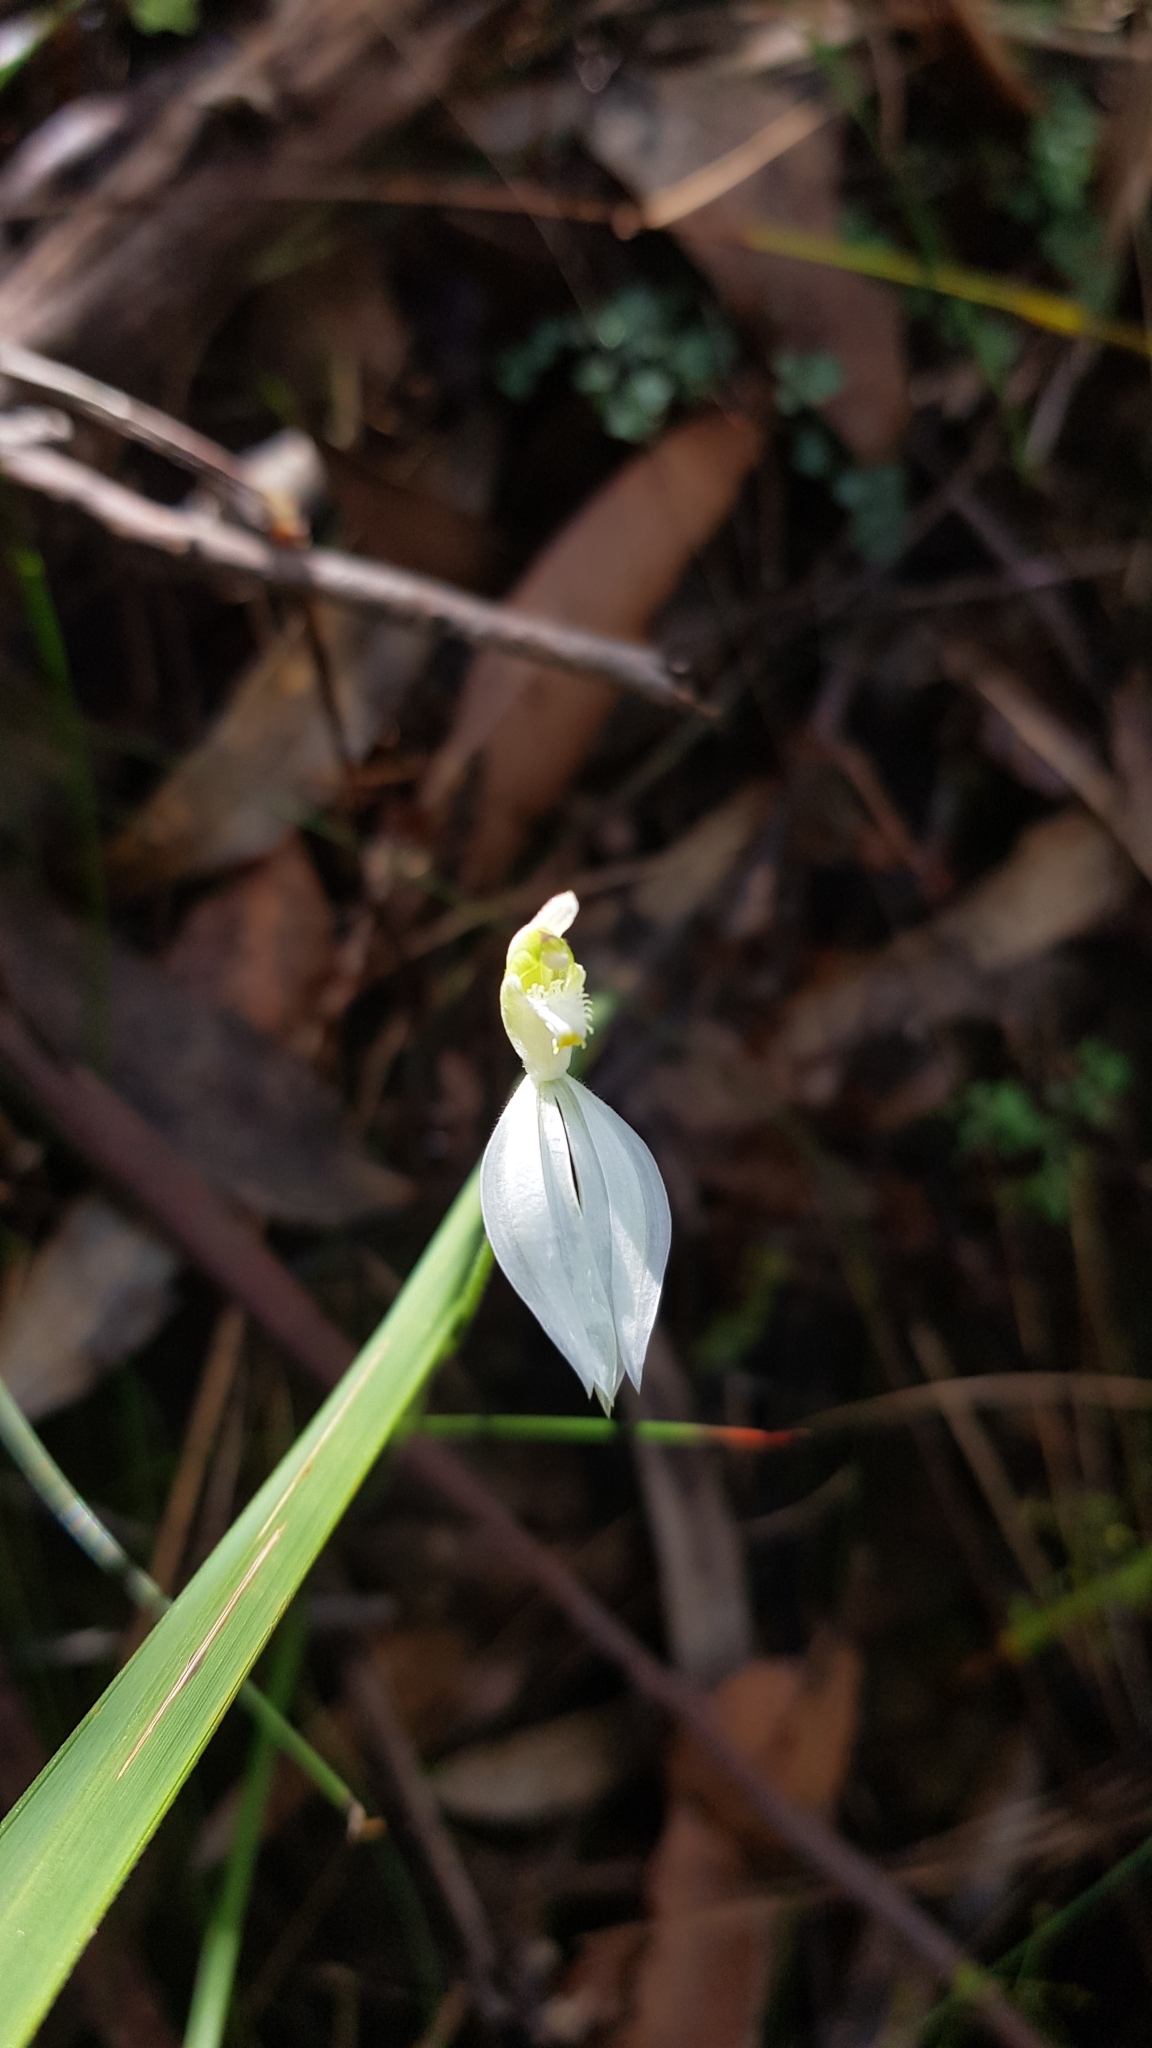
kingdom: Plantae
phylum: Tracheophyta
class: Liliopsida
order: Asparagales
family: Orchidaceae
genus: Caladenia
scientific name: Caladenia catenata
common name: White caladenia
